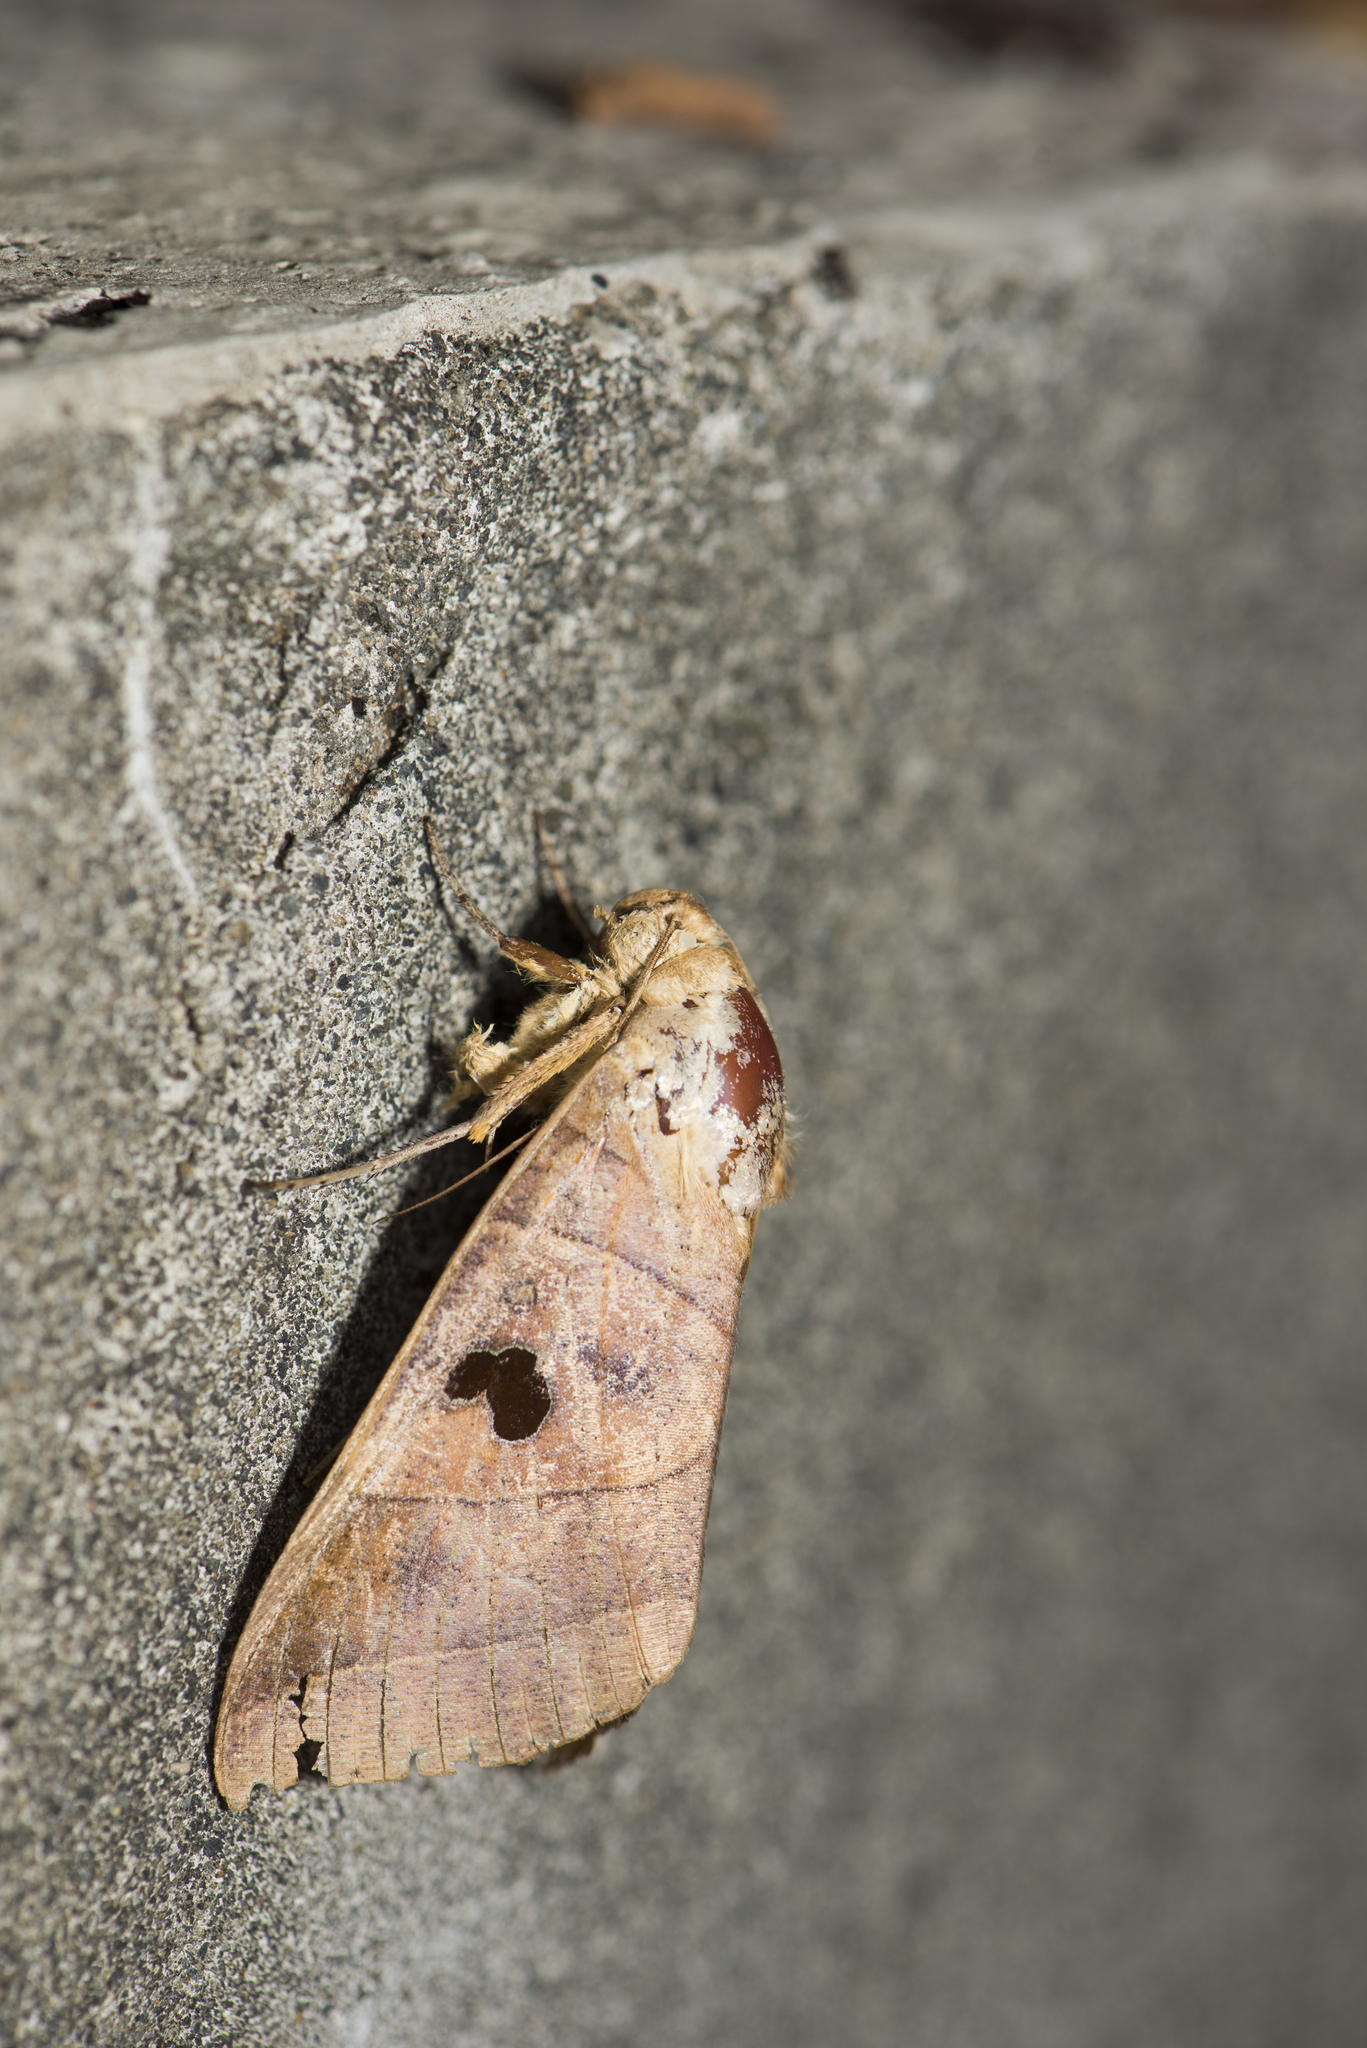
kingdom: Animalia
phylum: Arthropoda
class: Insecta
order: Lepidoptera
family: Erebidae
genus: Thyas
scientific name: Thyas coronata
